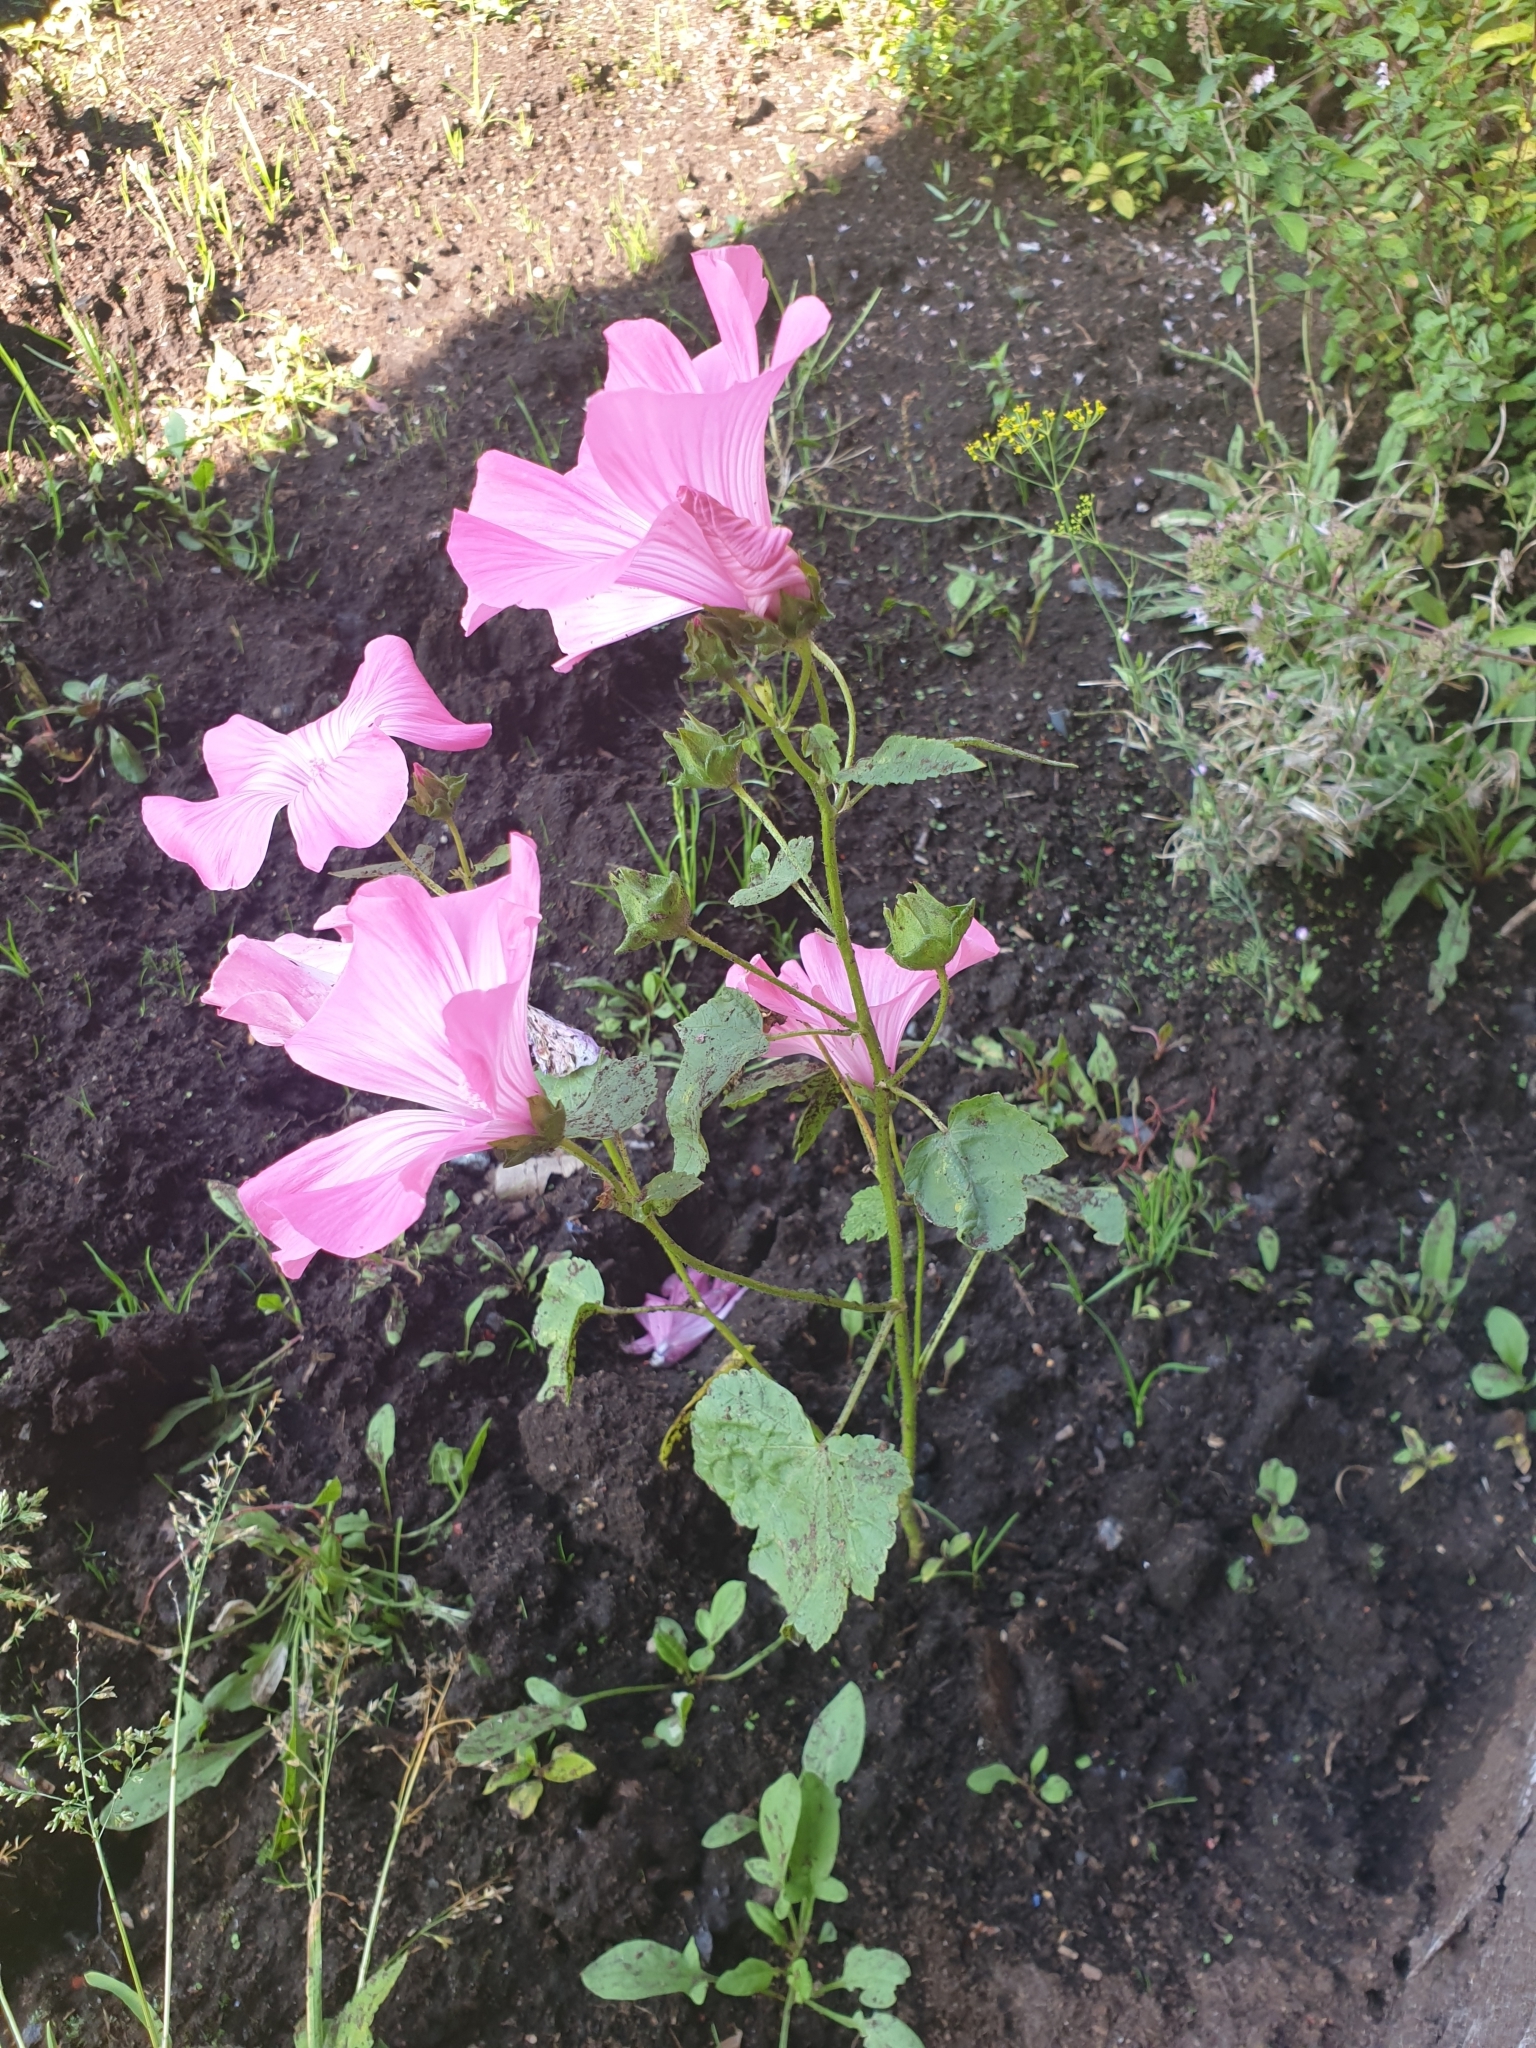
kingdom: Plantae
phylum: Tracheophyta
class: Magnoliopsida
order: Malvales
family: Malvaceae
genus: Malva
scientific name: Malva moschata
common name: Musk mallow
